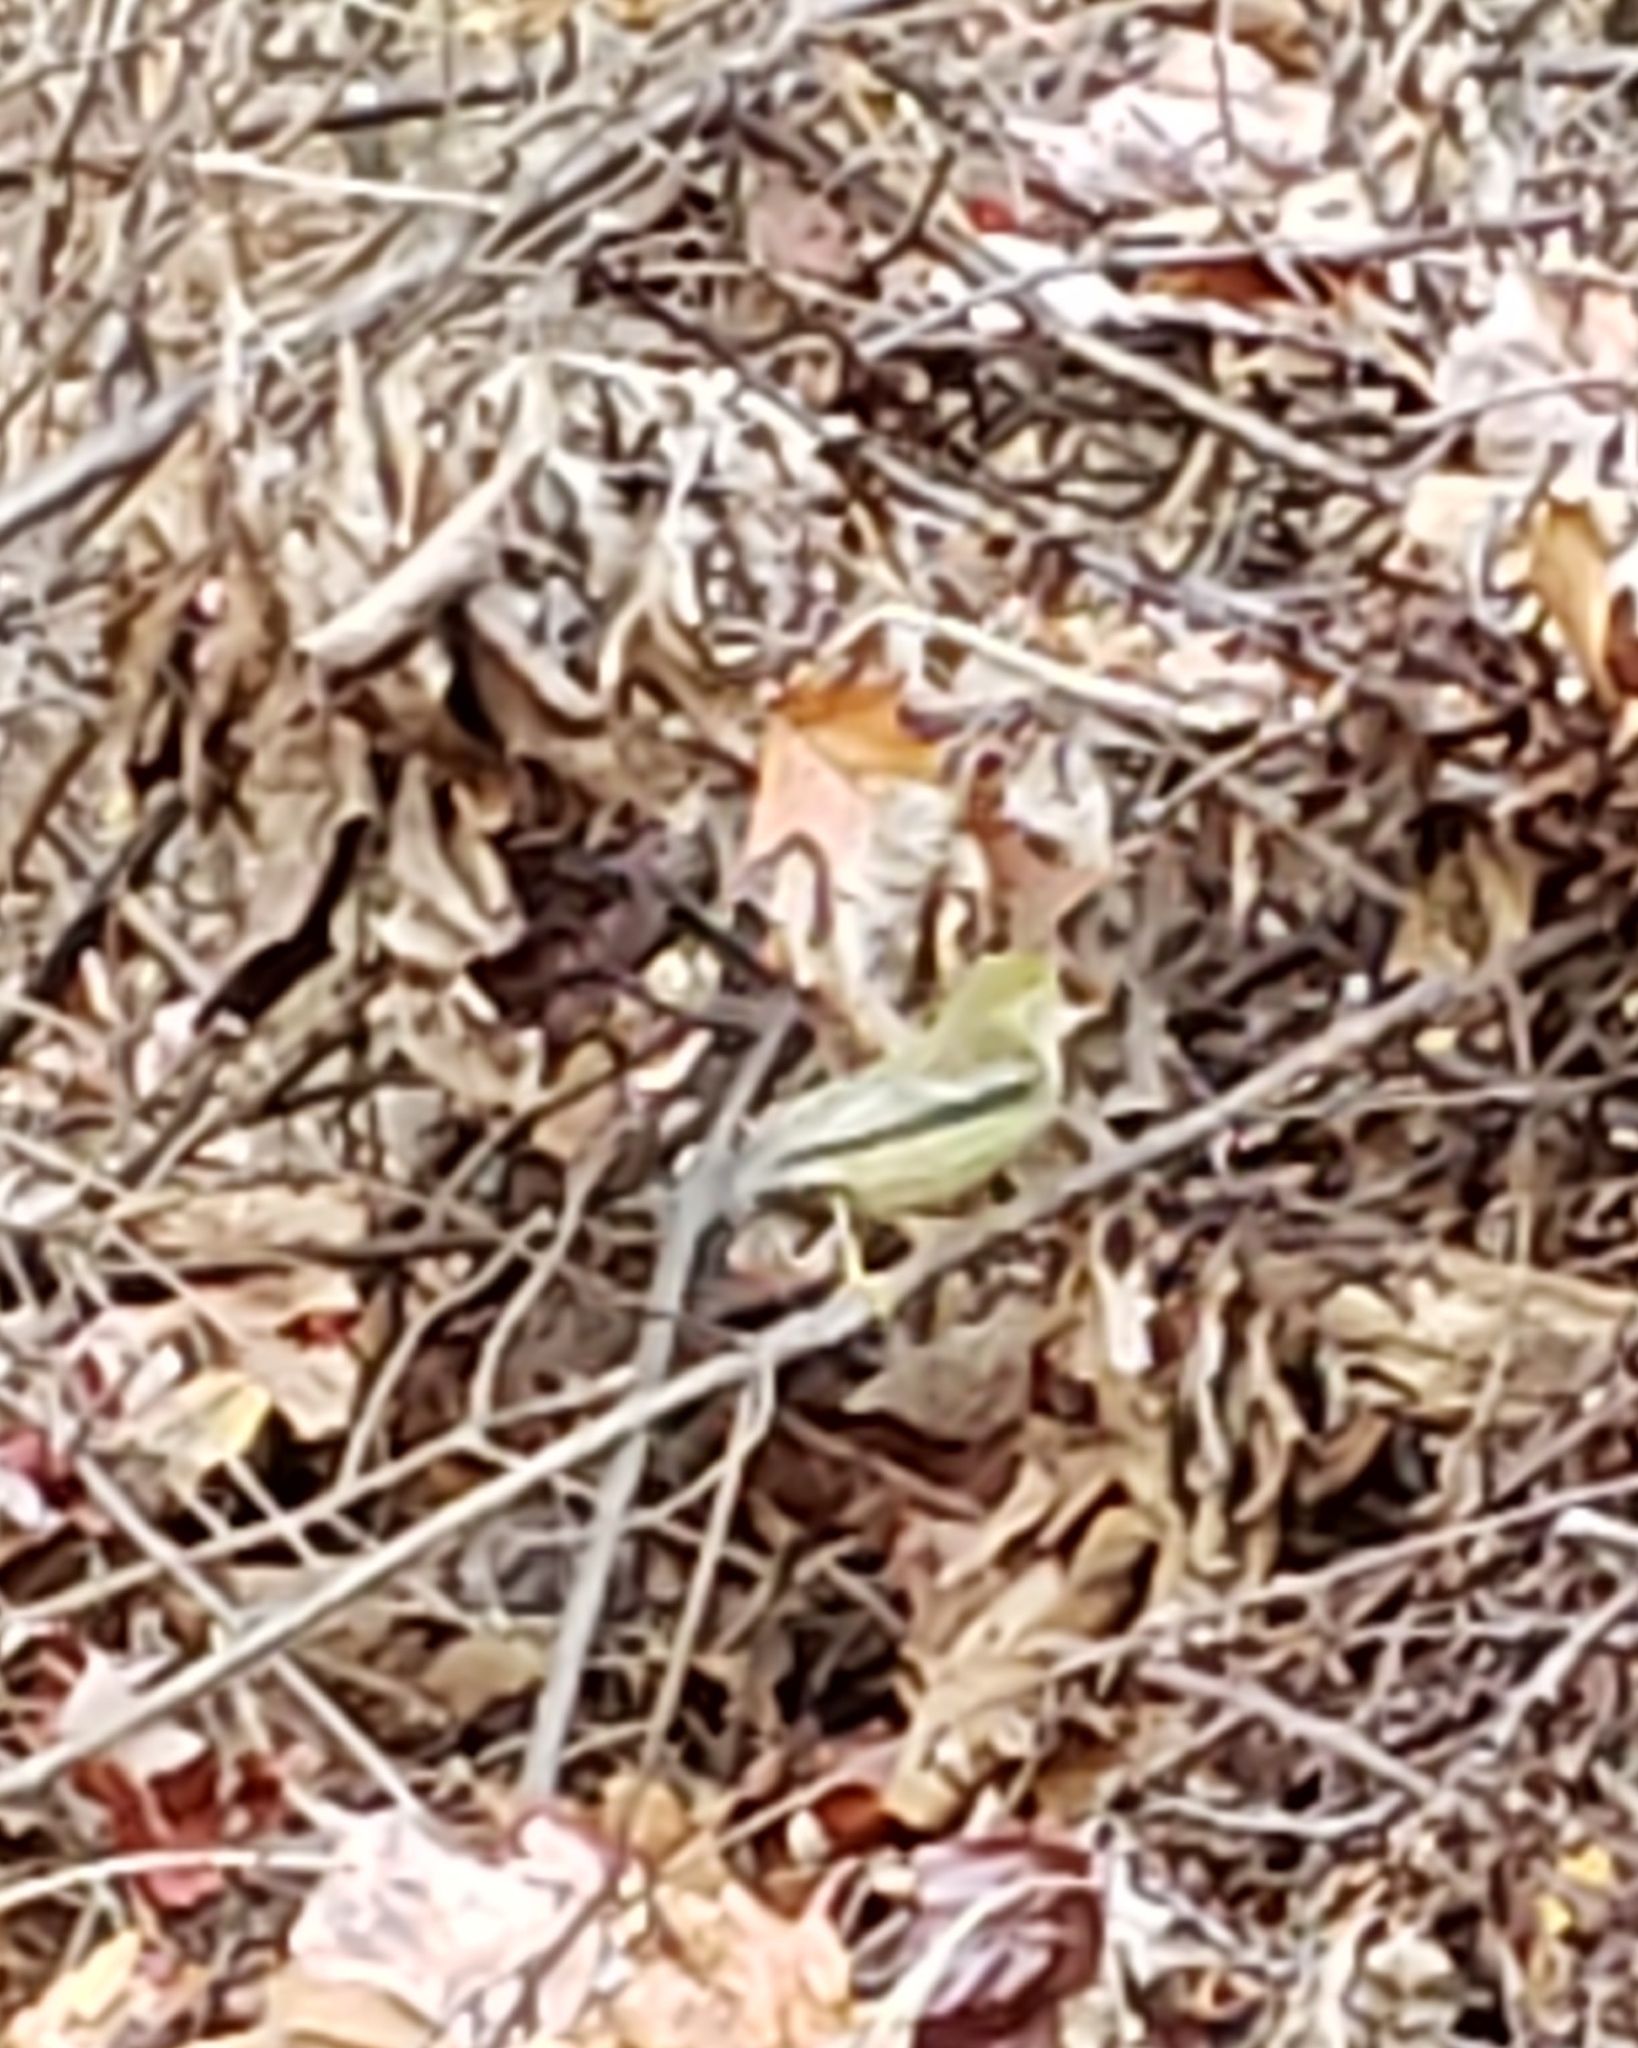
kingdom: Animalia
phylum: Chordata
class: Aves
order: Passeriformes
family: Parulidae
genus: Setophaga
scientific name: Setophaga pinus
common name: Pine warbler
